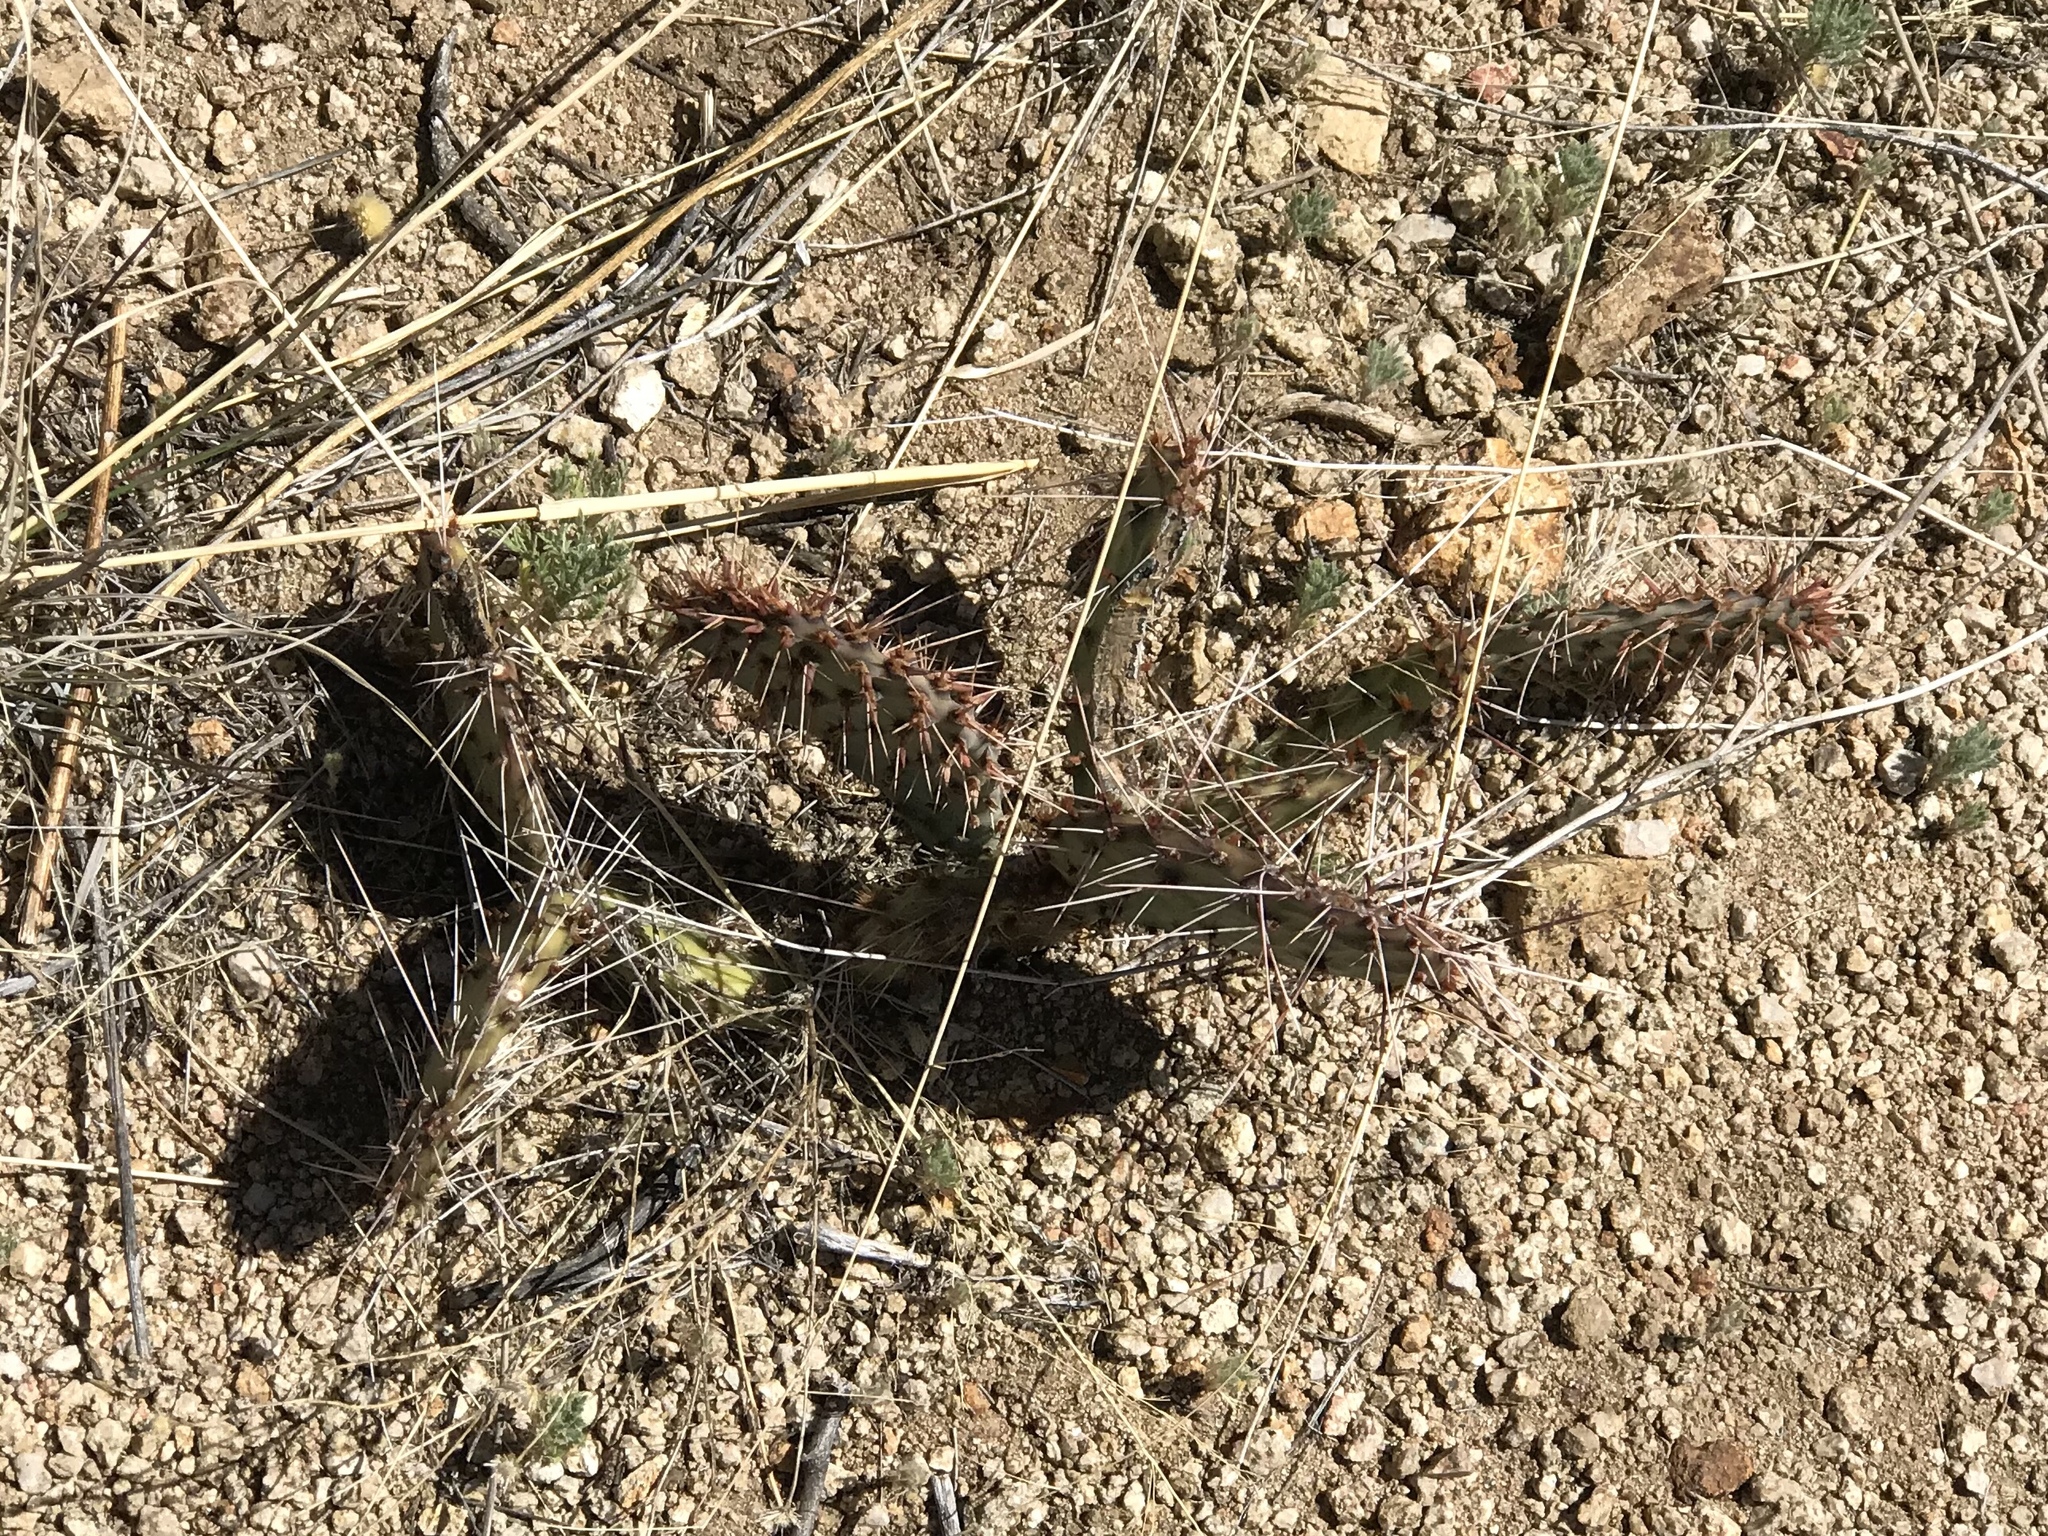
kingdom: Plantae
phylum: Tracheophyta
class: Magnoliopsida
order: Caryophyllales
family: Cactaceae
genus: Opuntia
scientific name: Opuntia macrocentra
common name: Purple prickly-pear
